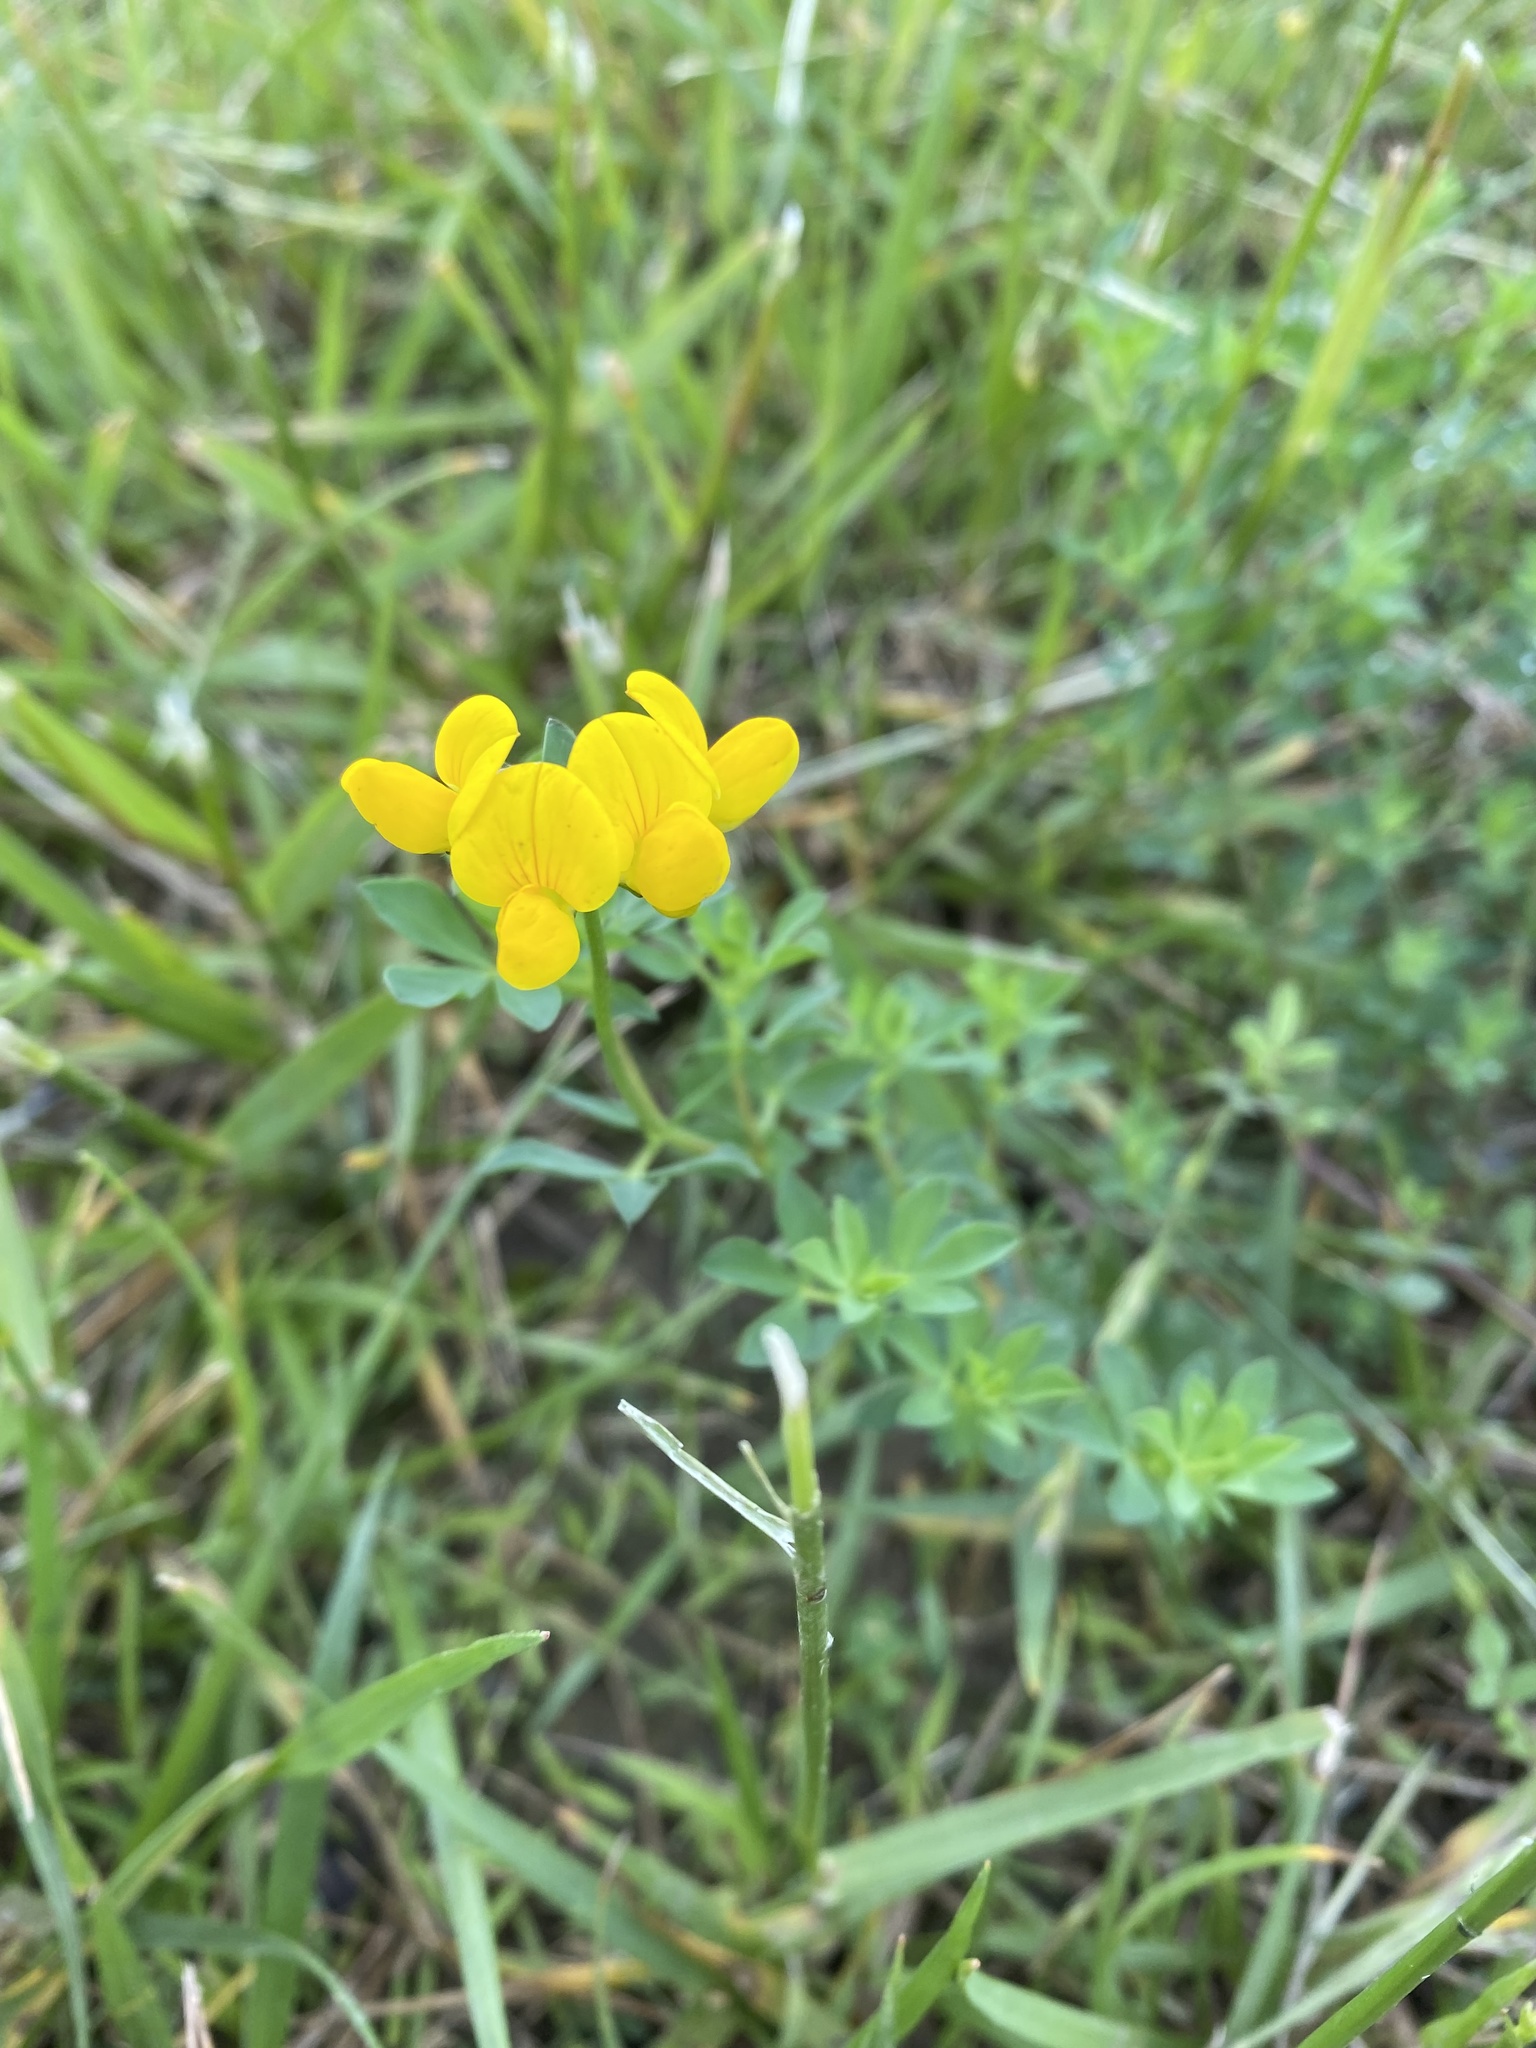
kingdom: Plantae
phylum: Tracheophyta
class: Magnoliopsida
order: Fabales
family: Fabaceae
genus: Lotus
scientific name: Lotus corniculatus
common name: Common bird's-foot-trefoil
